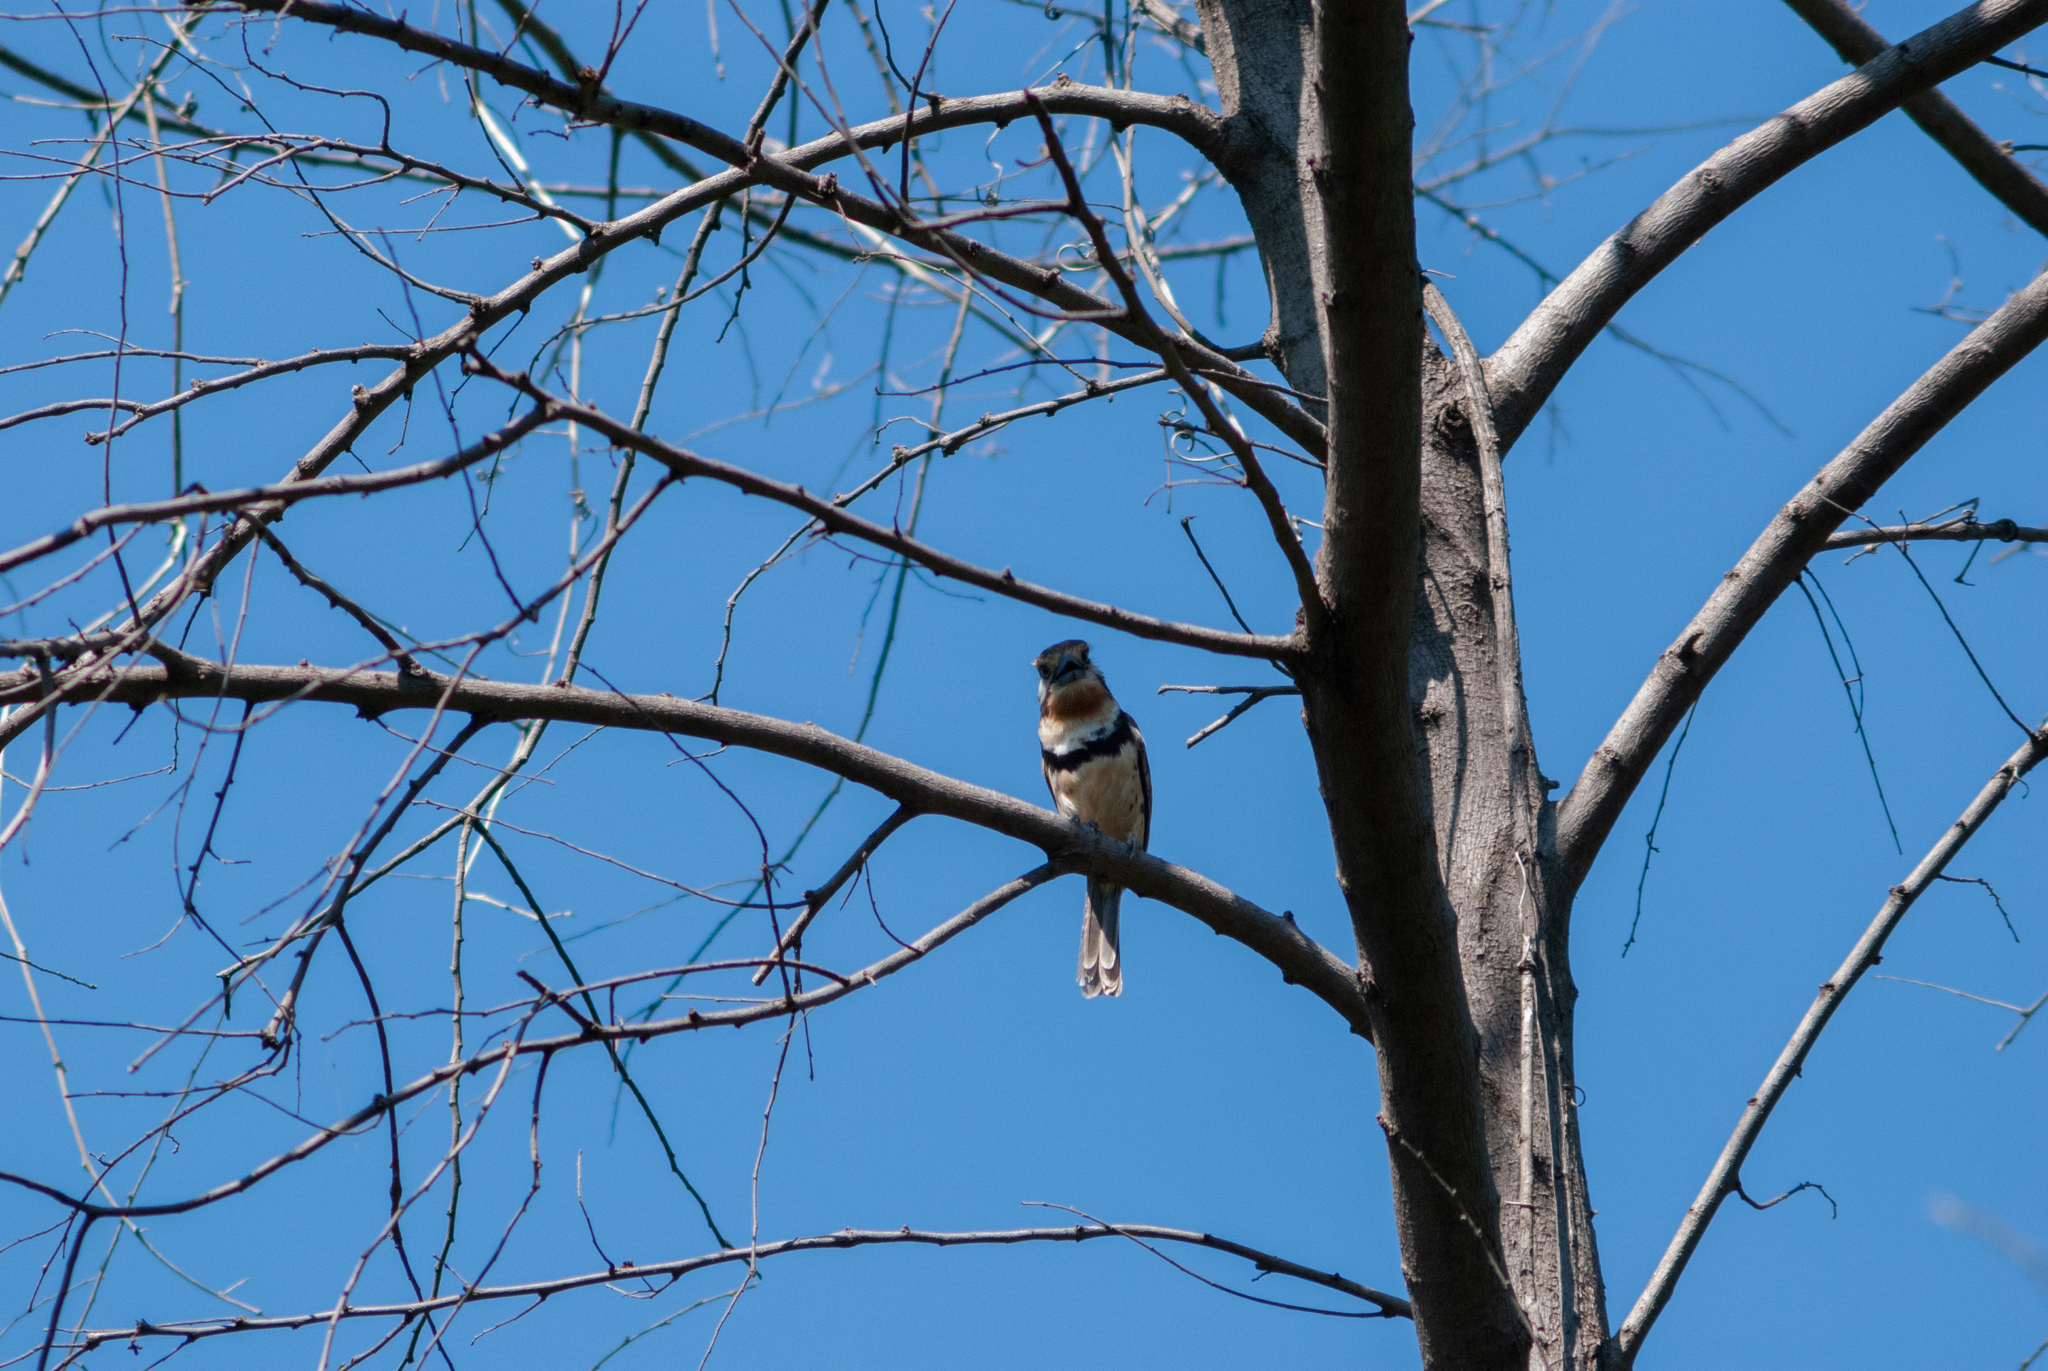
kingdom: Animalia
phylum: Chordata
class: Aves
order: Piciformes
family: Bucconidae
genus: Hypnelus
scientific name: Hypnelus ruficollis
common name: Russet-throated puffbird
